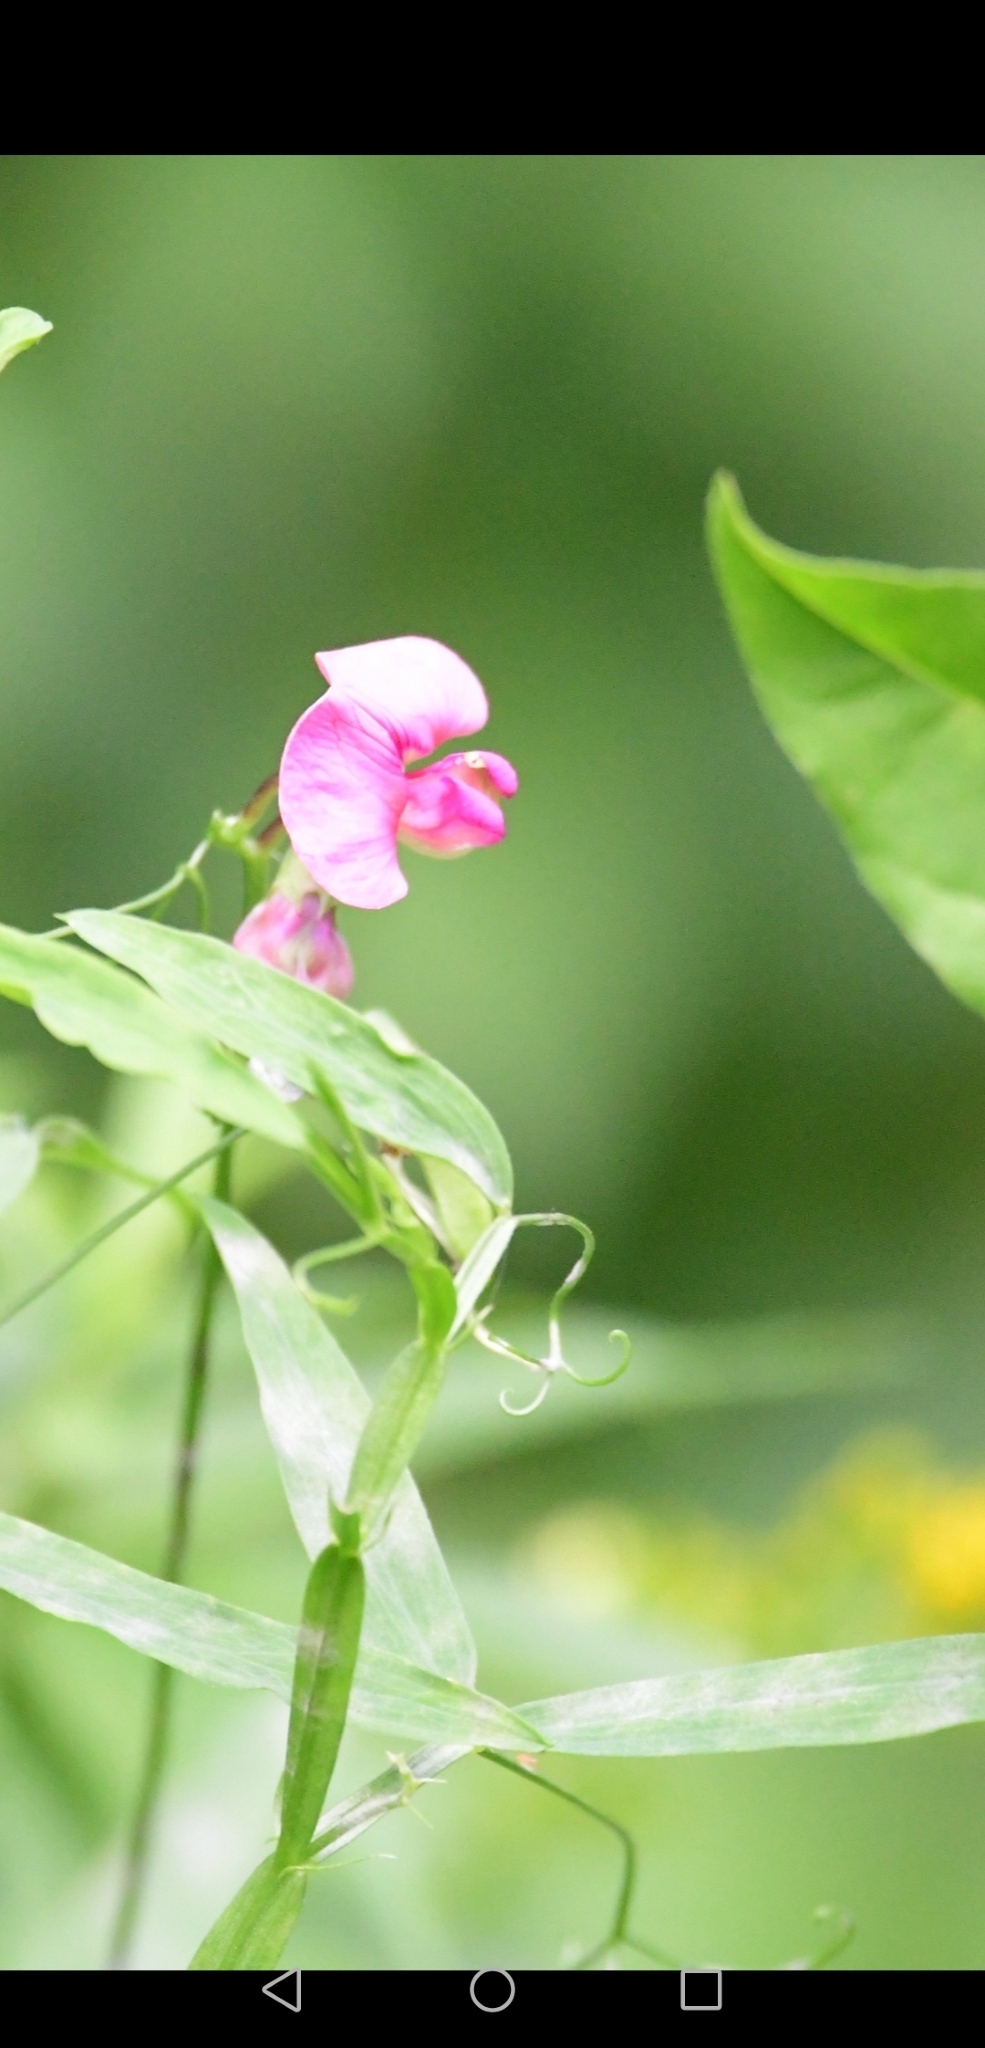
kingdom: Plantae
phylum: Tracheophyta
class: Magnoliopsida
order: Fabales
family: Fabaceae
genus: Lathyrus
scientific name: Lathyrus sylvestris
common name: Flat pea
